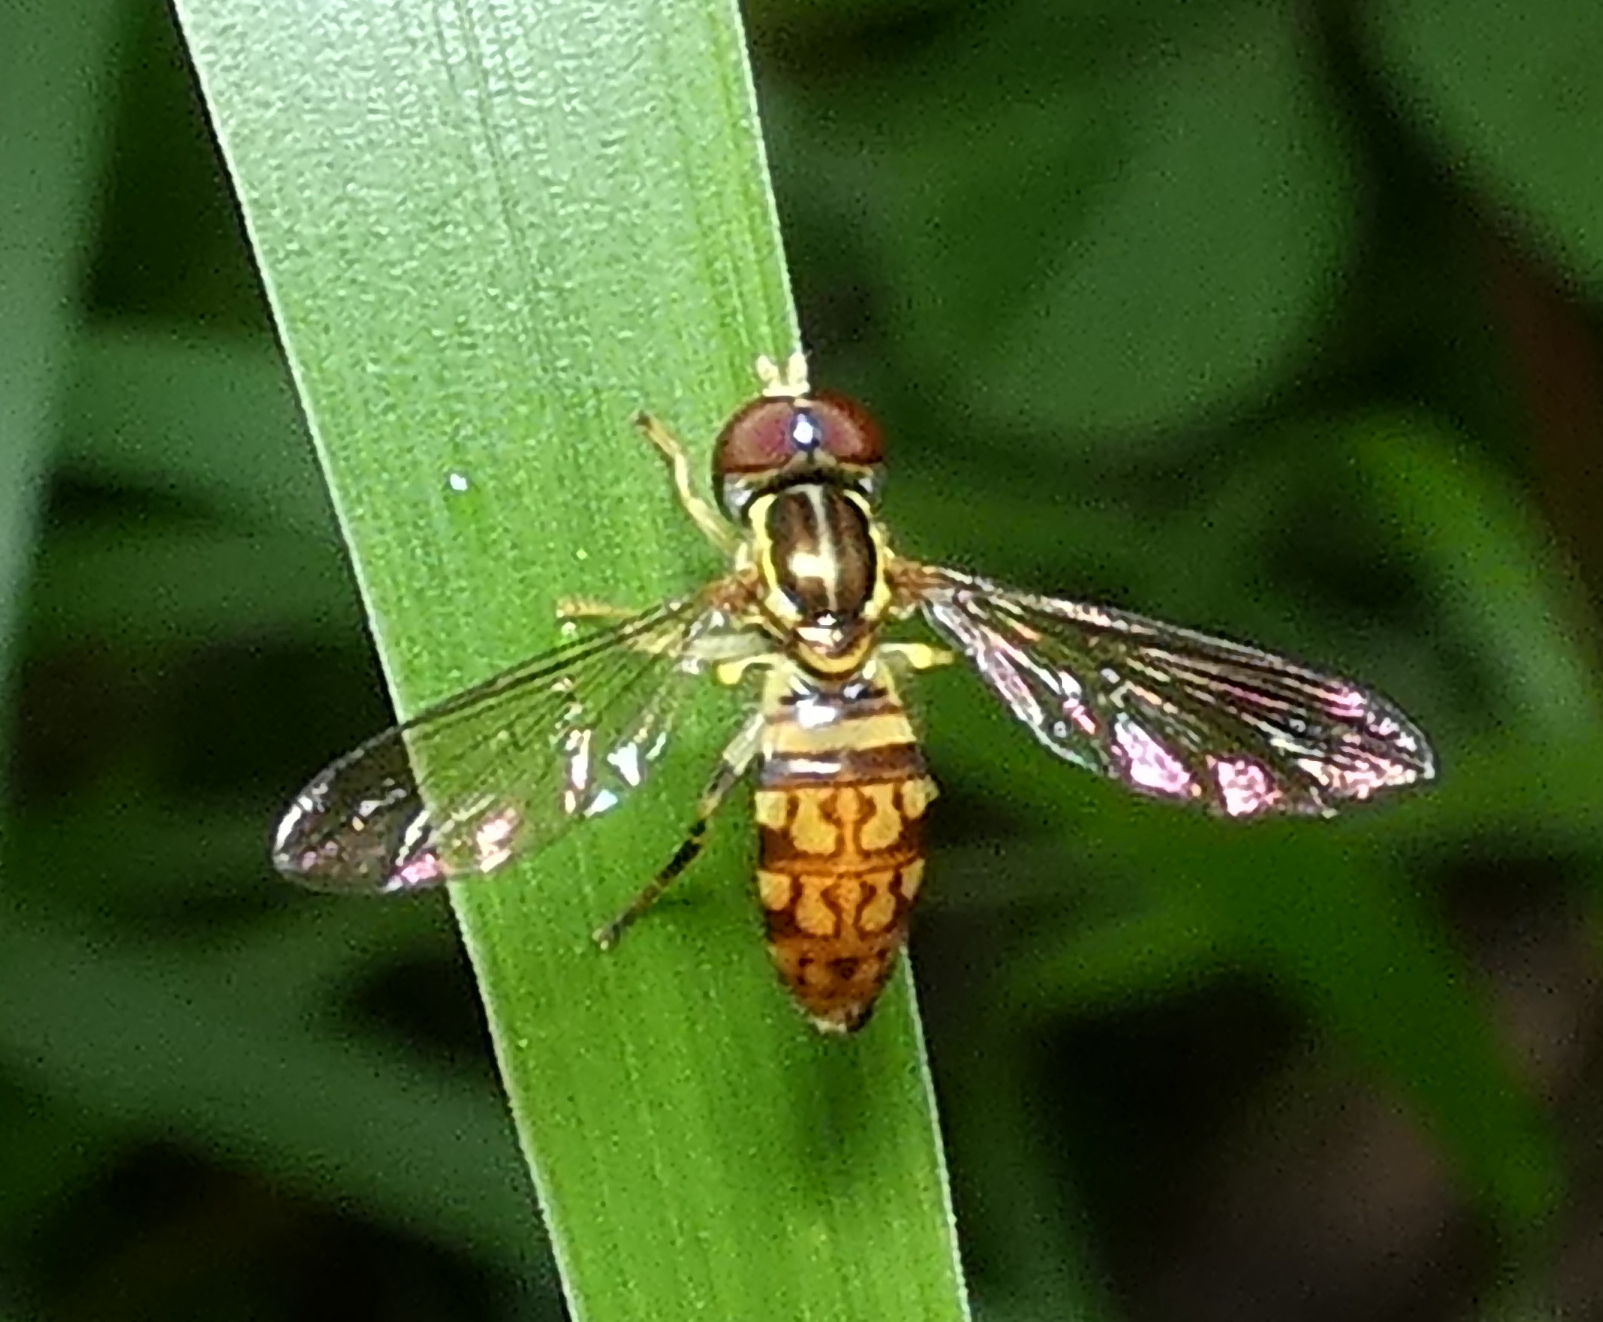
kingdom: Animalia
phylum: Arthropoda
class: Insecta
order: Diptera
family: Syrphidae
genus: Toxomerus
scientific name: Toxomerus pictus
